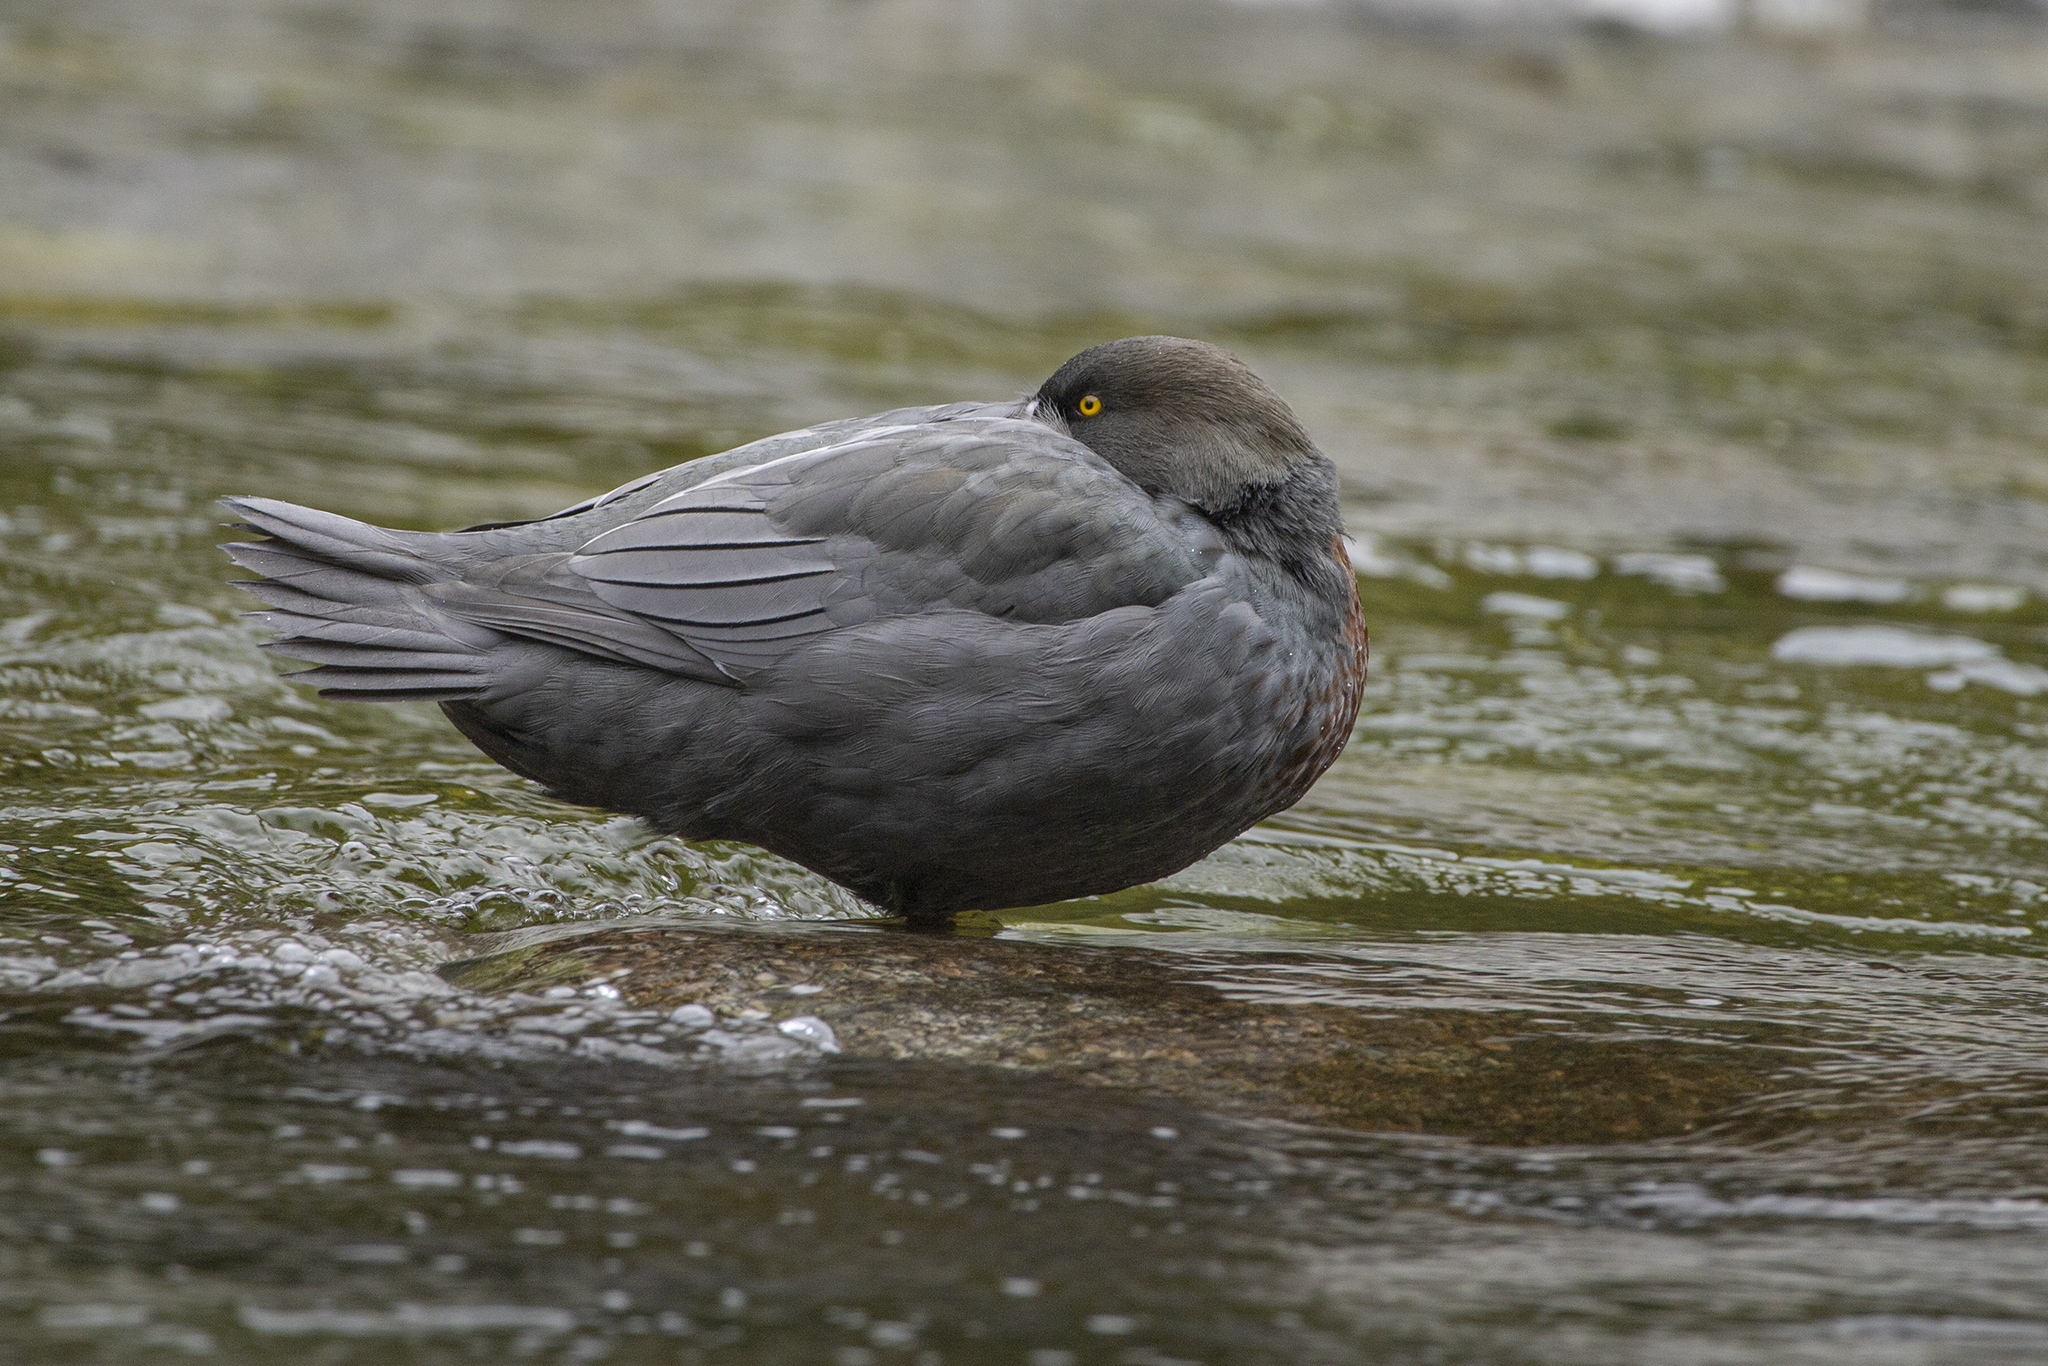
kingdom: Animalia
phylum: Chordata
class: Aves
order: Anseriformes
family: Anatidae
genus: Hymenolaimus
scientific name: Hymenolaimus malacorhynchos
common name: Blue duck
